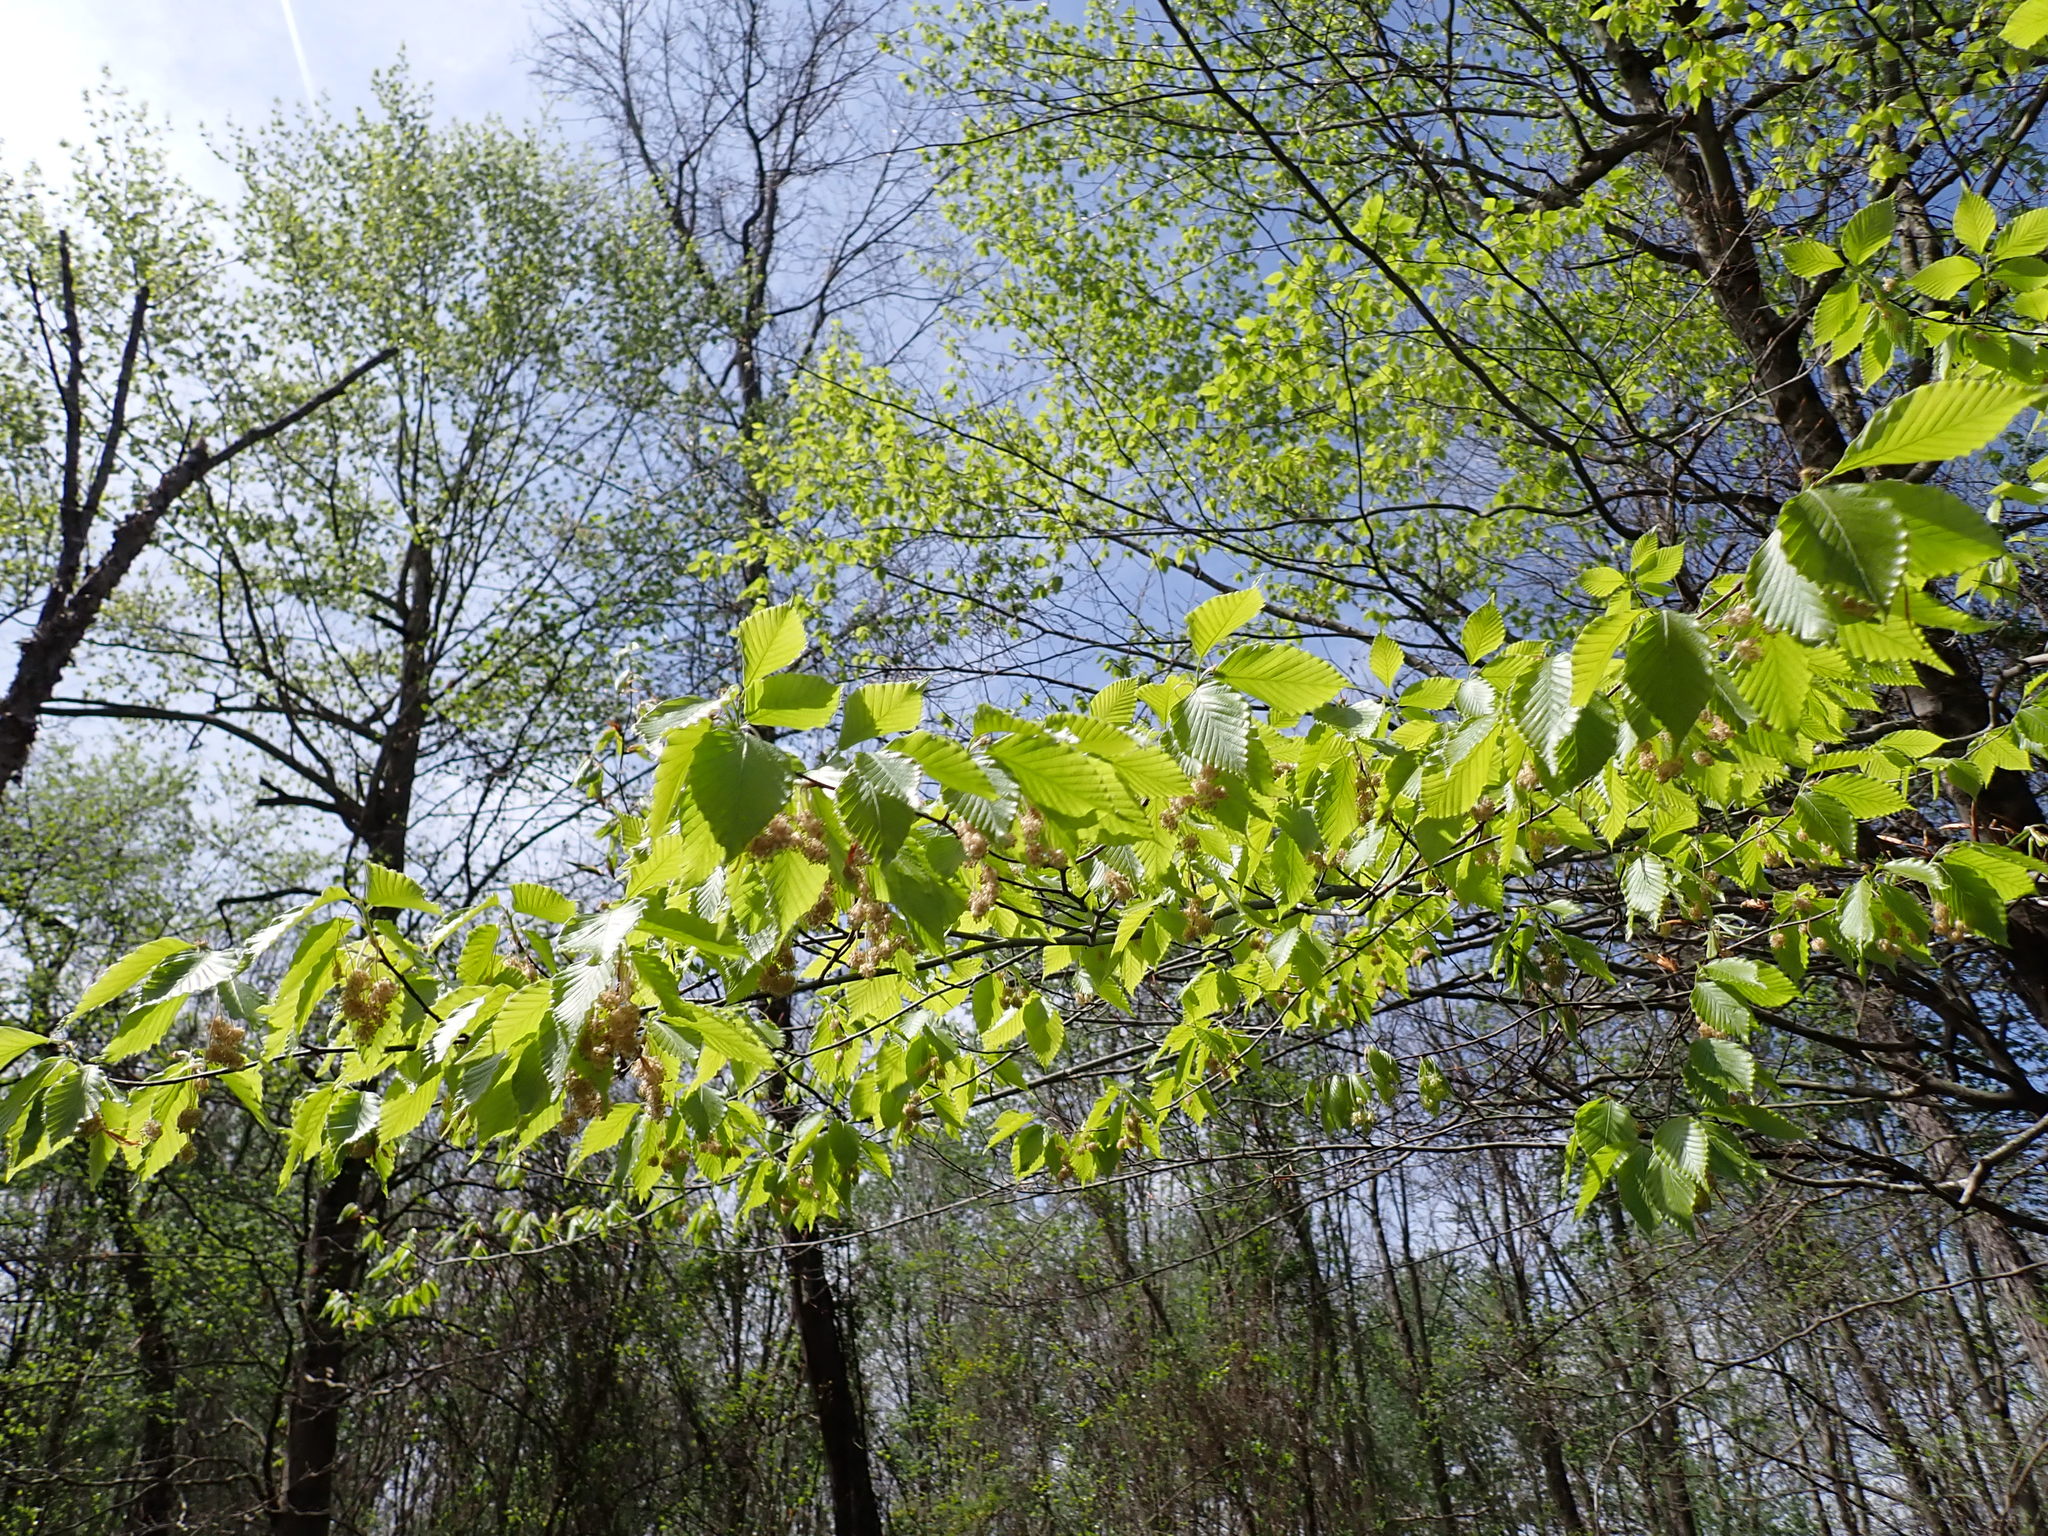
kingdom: Plantae
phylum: Tracheophyta
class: Magnoliopsida
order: Fagales
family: Fagaceae
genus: Fagus
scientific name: Fagus grandifolia
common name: American beech
